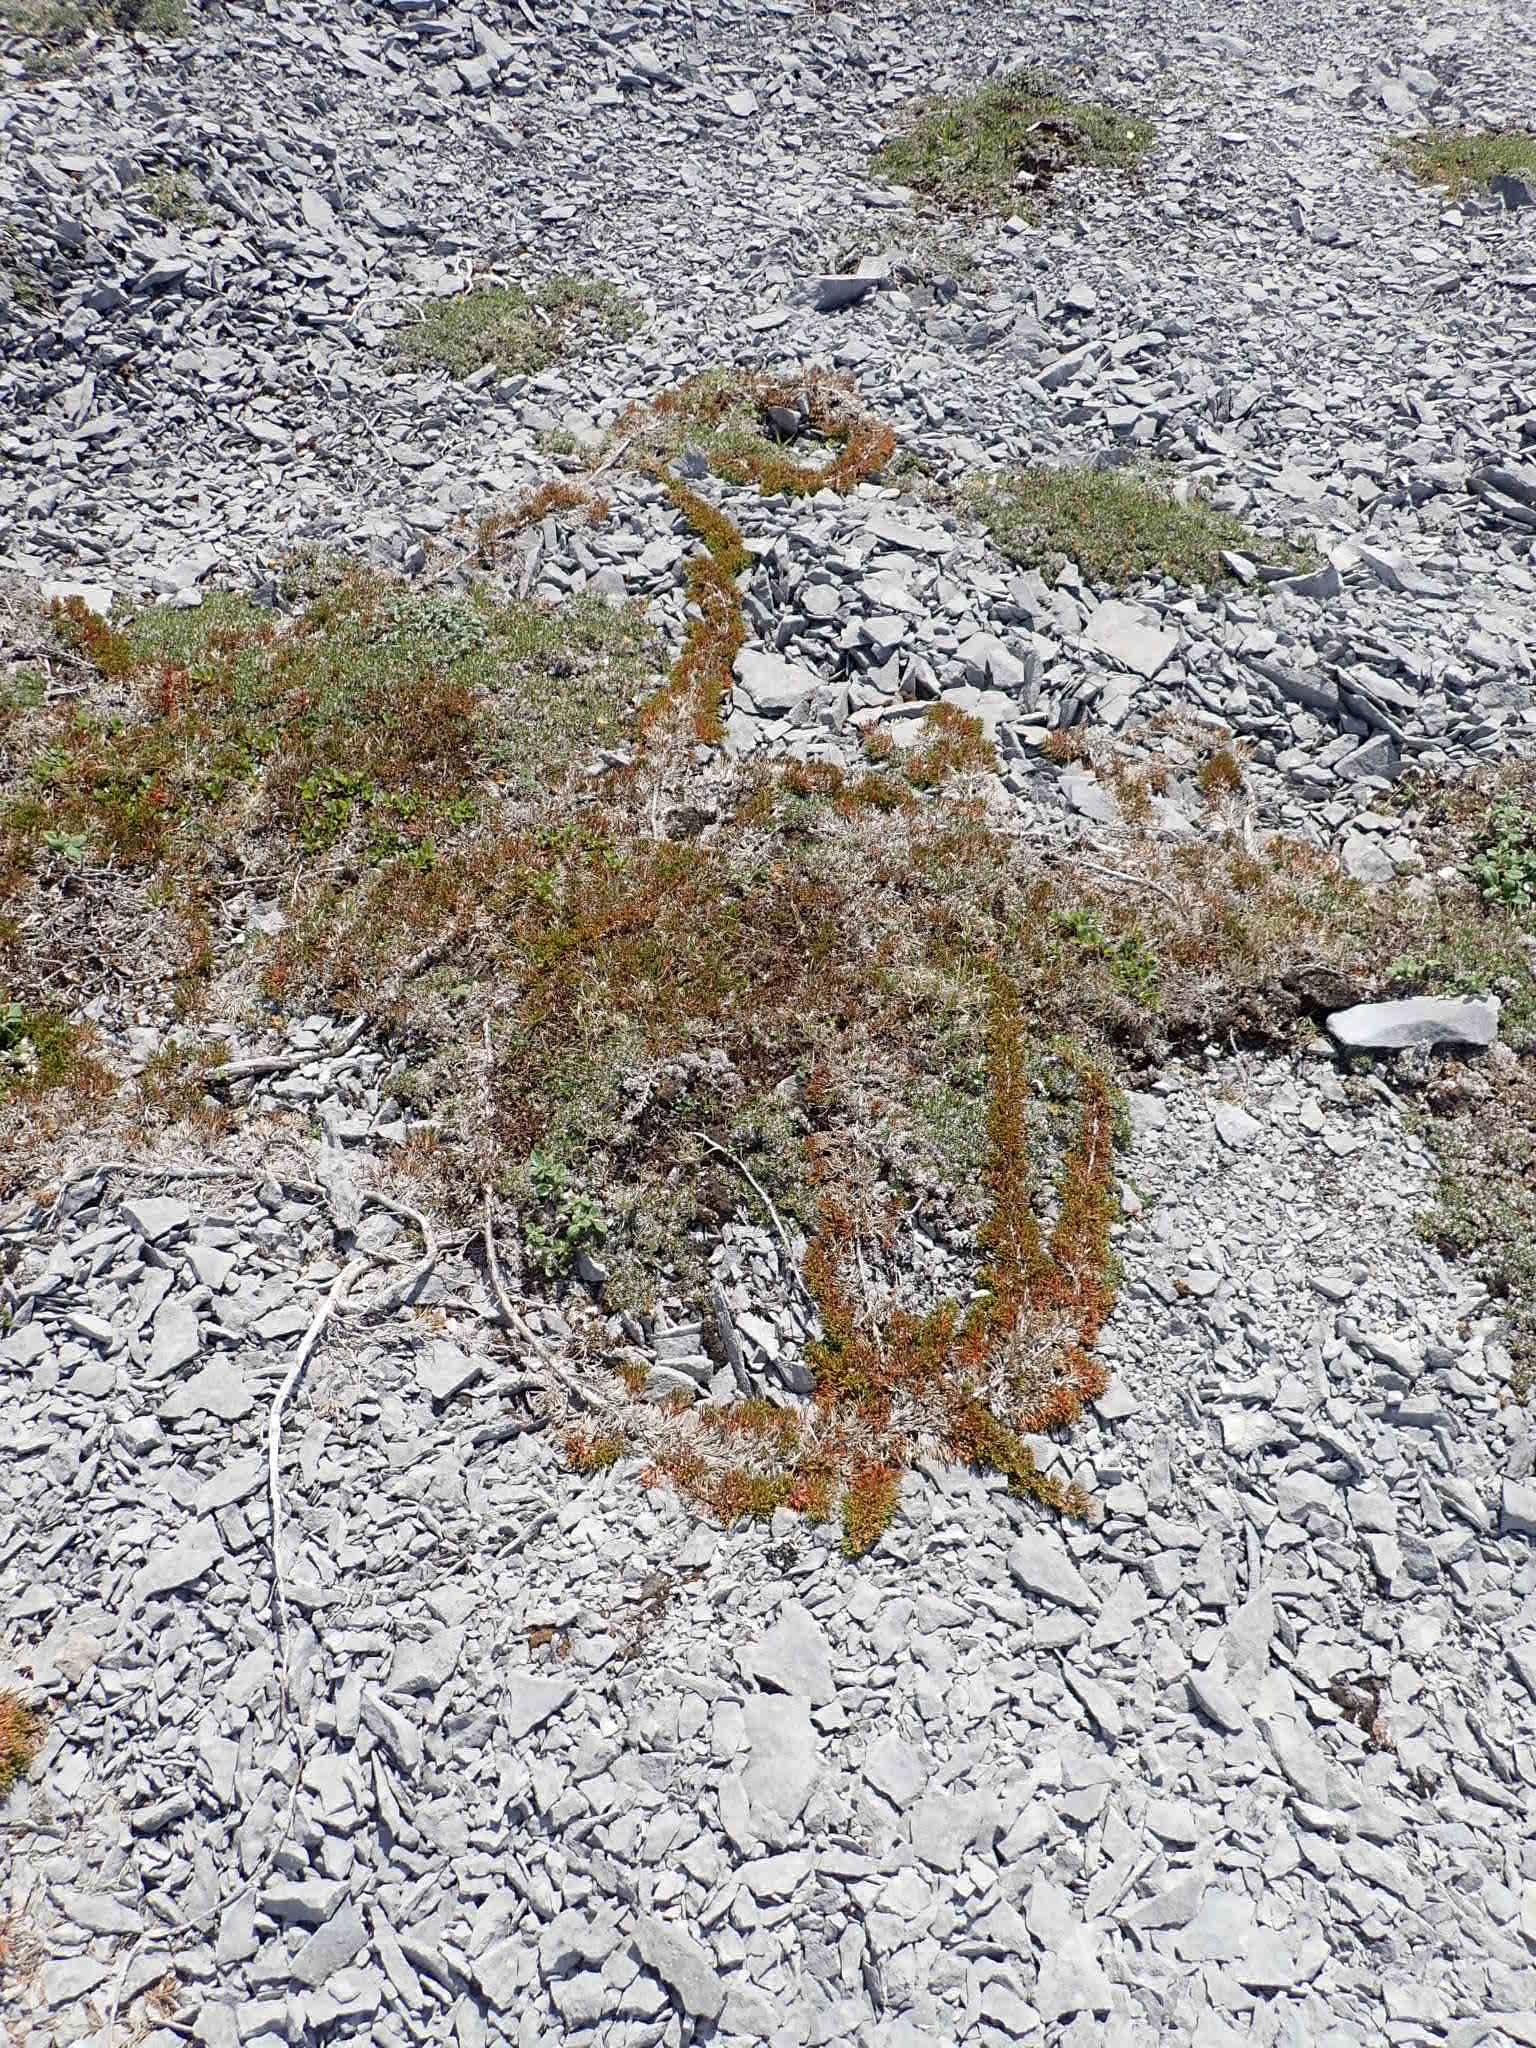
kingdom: Plantae
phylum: Tracheophyta
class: Pinopsida
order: Pinales
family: Cupressaceae
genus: Juniperus
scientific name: Juniperus horizontalis
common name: Creeping juniper
